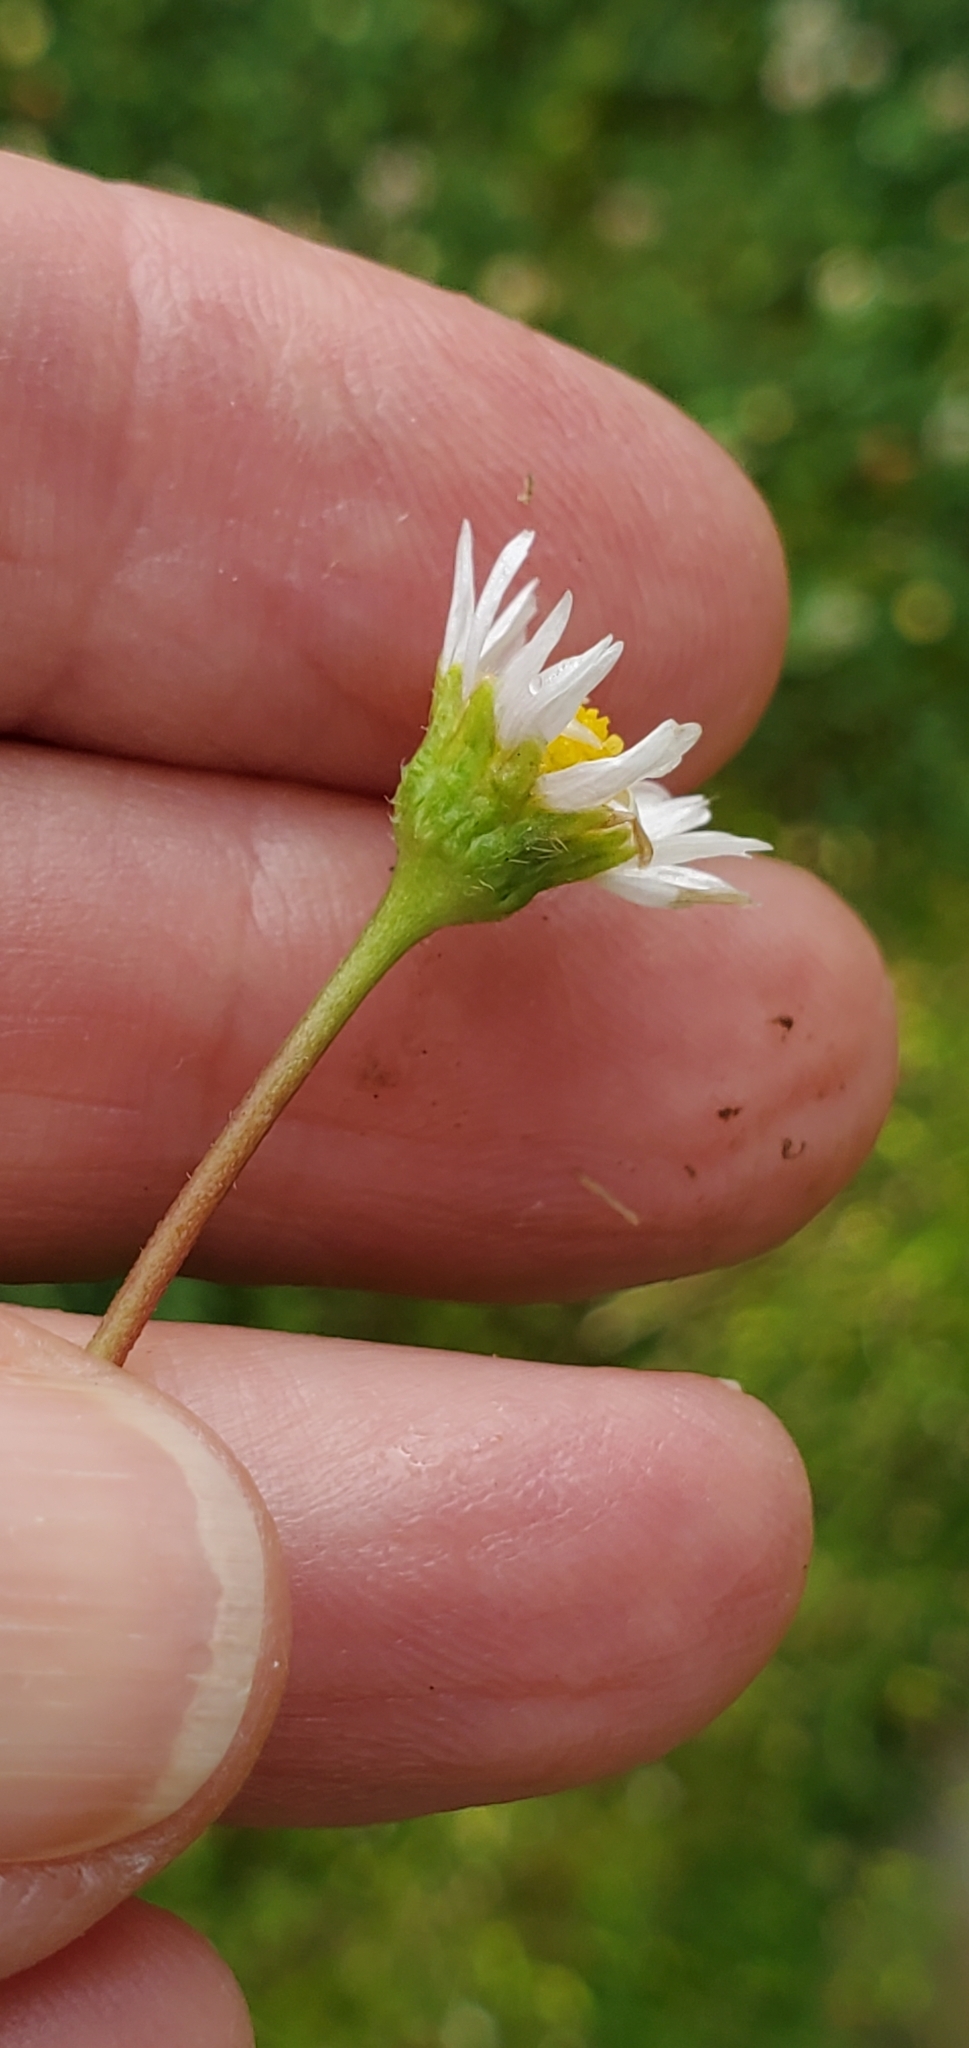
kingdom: Plantae
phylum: Tracheophyta
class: Magnoliopsida
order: Asterales
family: Asteraceae
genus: Bellis
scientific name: Bellis perennis
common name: Lawndaisy
